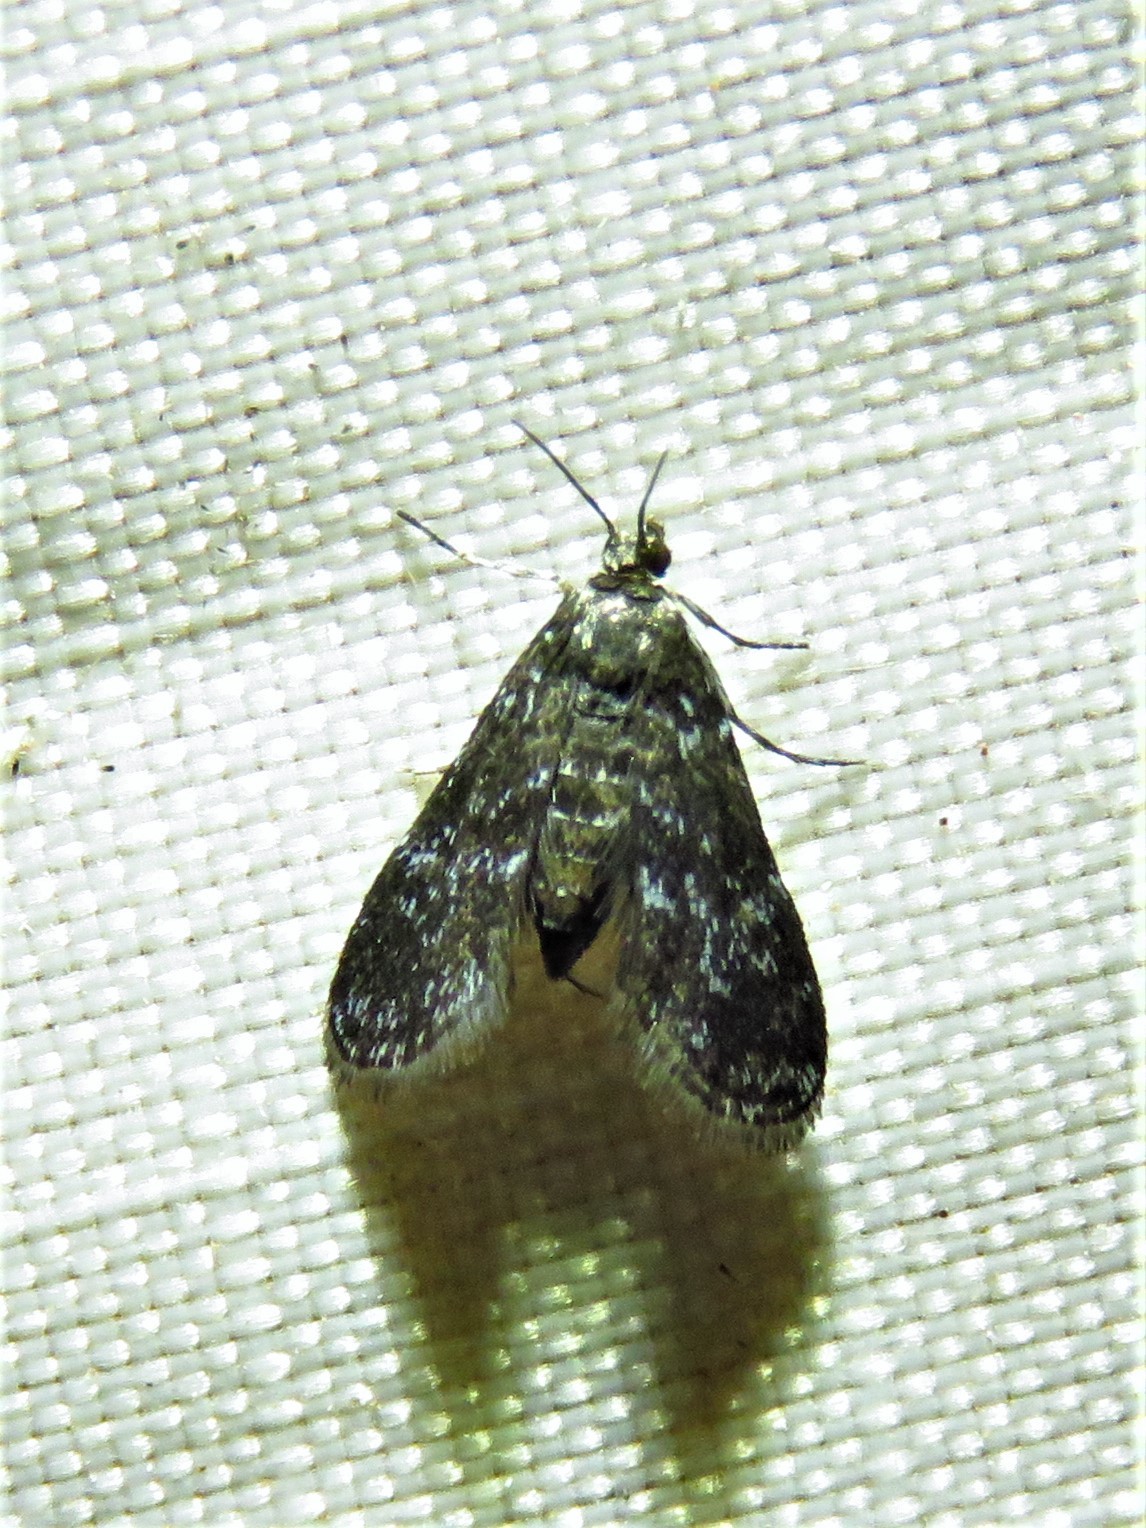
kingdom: Animalia
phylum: Arthropoda
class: Insecta
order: Lepidoptera
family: Crambidae
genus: Elophila
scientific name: Elophila tinealis
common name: Black duckweed moth
